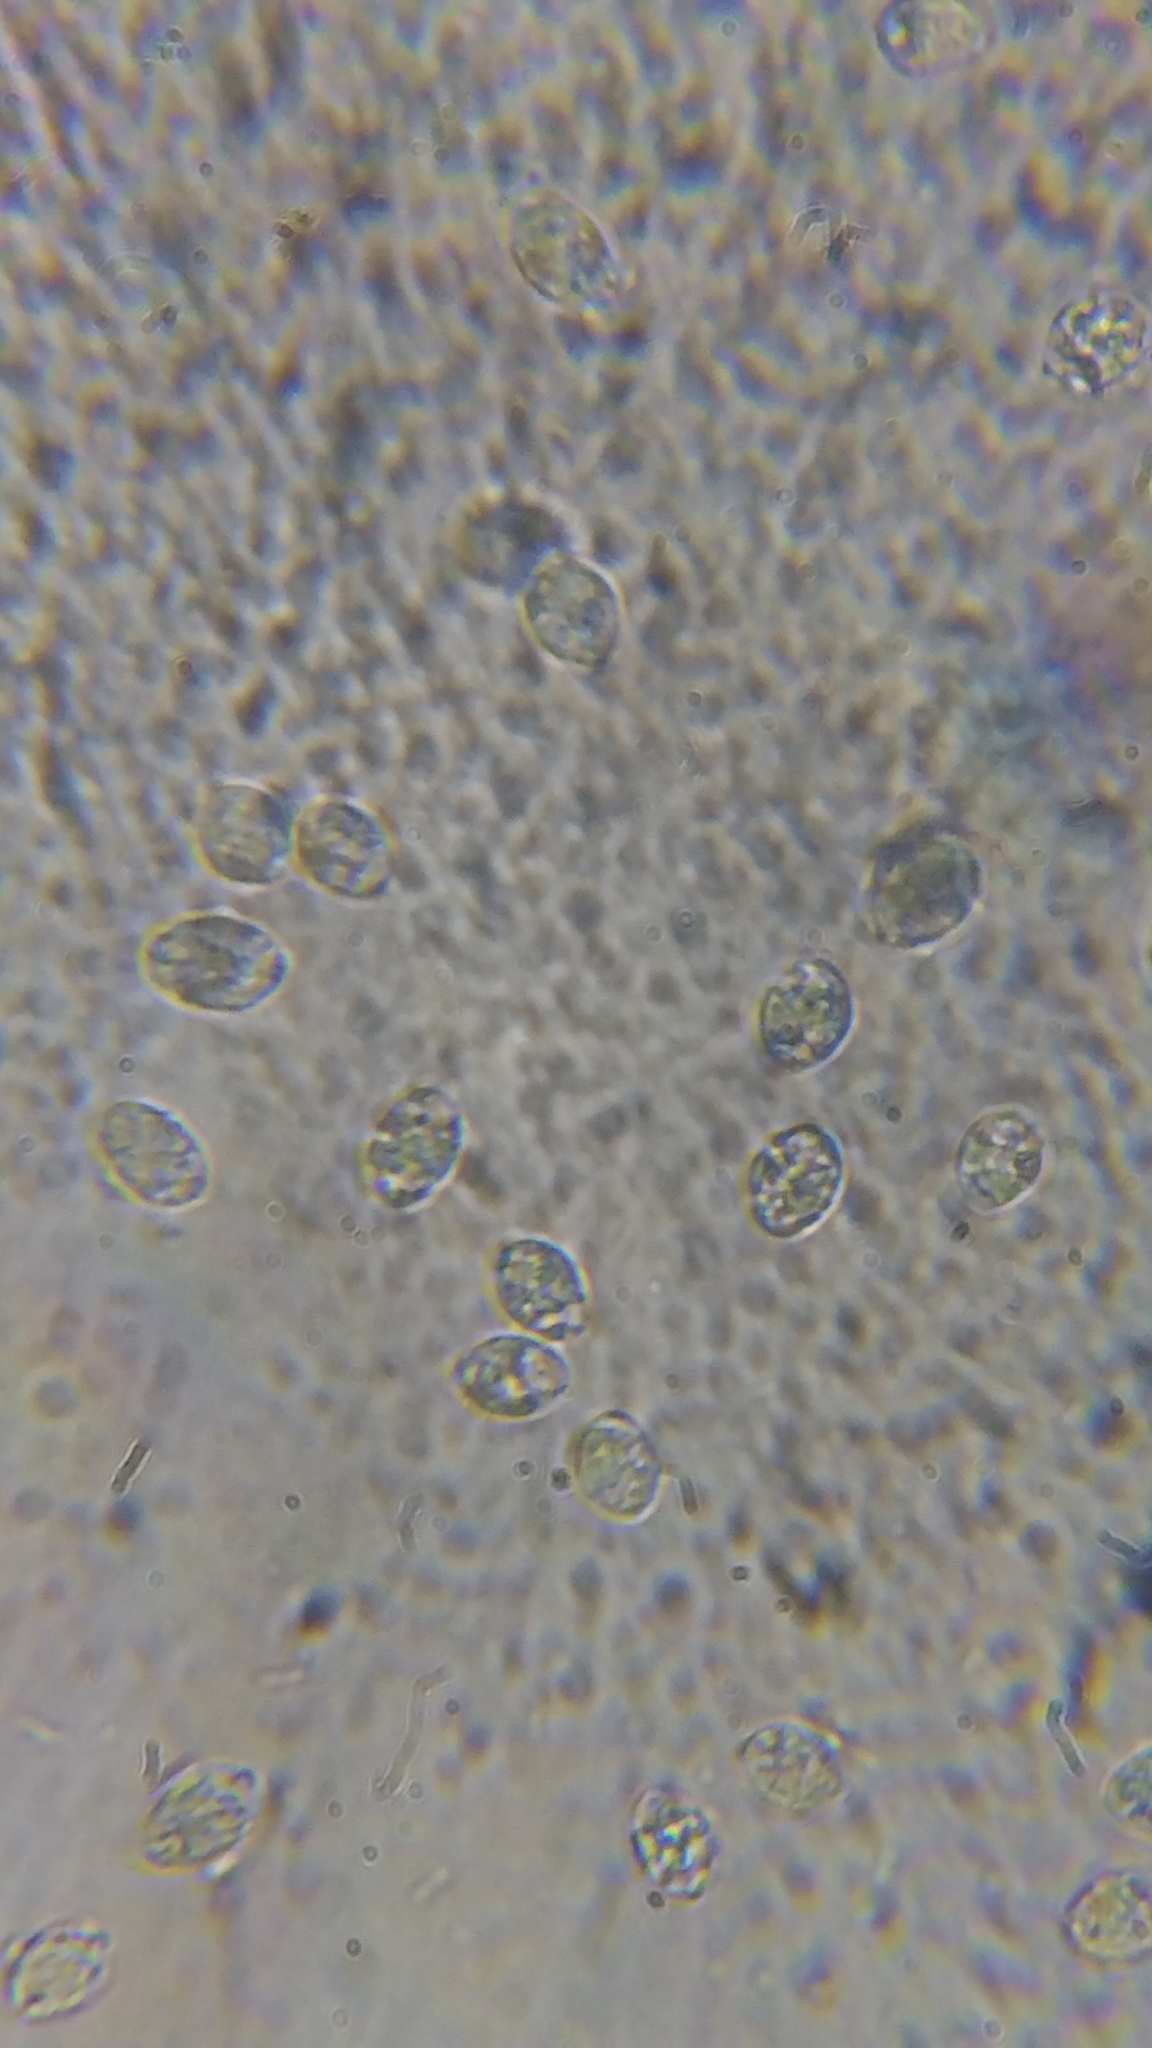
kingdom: Fungi
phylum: Basidiomycota
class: Agaricomycetes
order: Agaricales
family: Hygrophoraceae
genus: Humidicutis
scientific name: Humidicutis marginata
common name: Orange gilled waxcap
